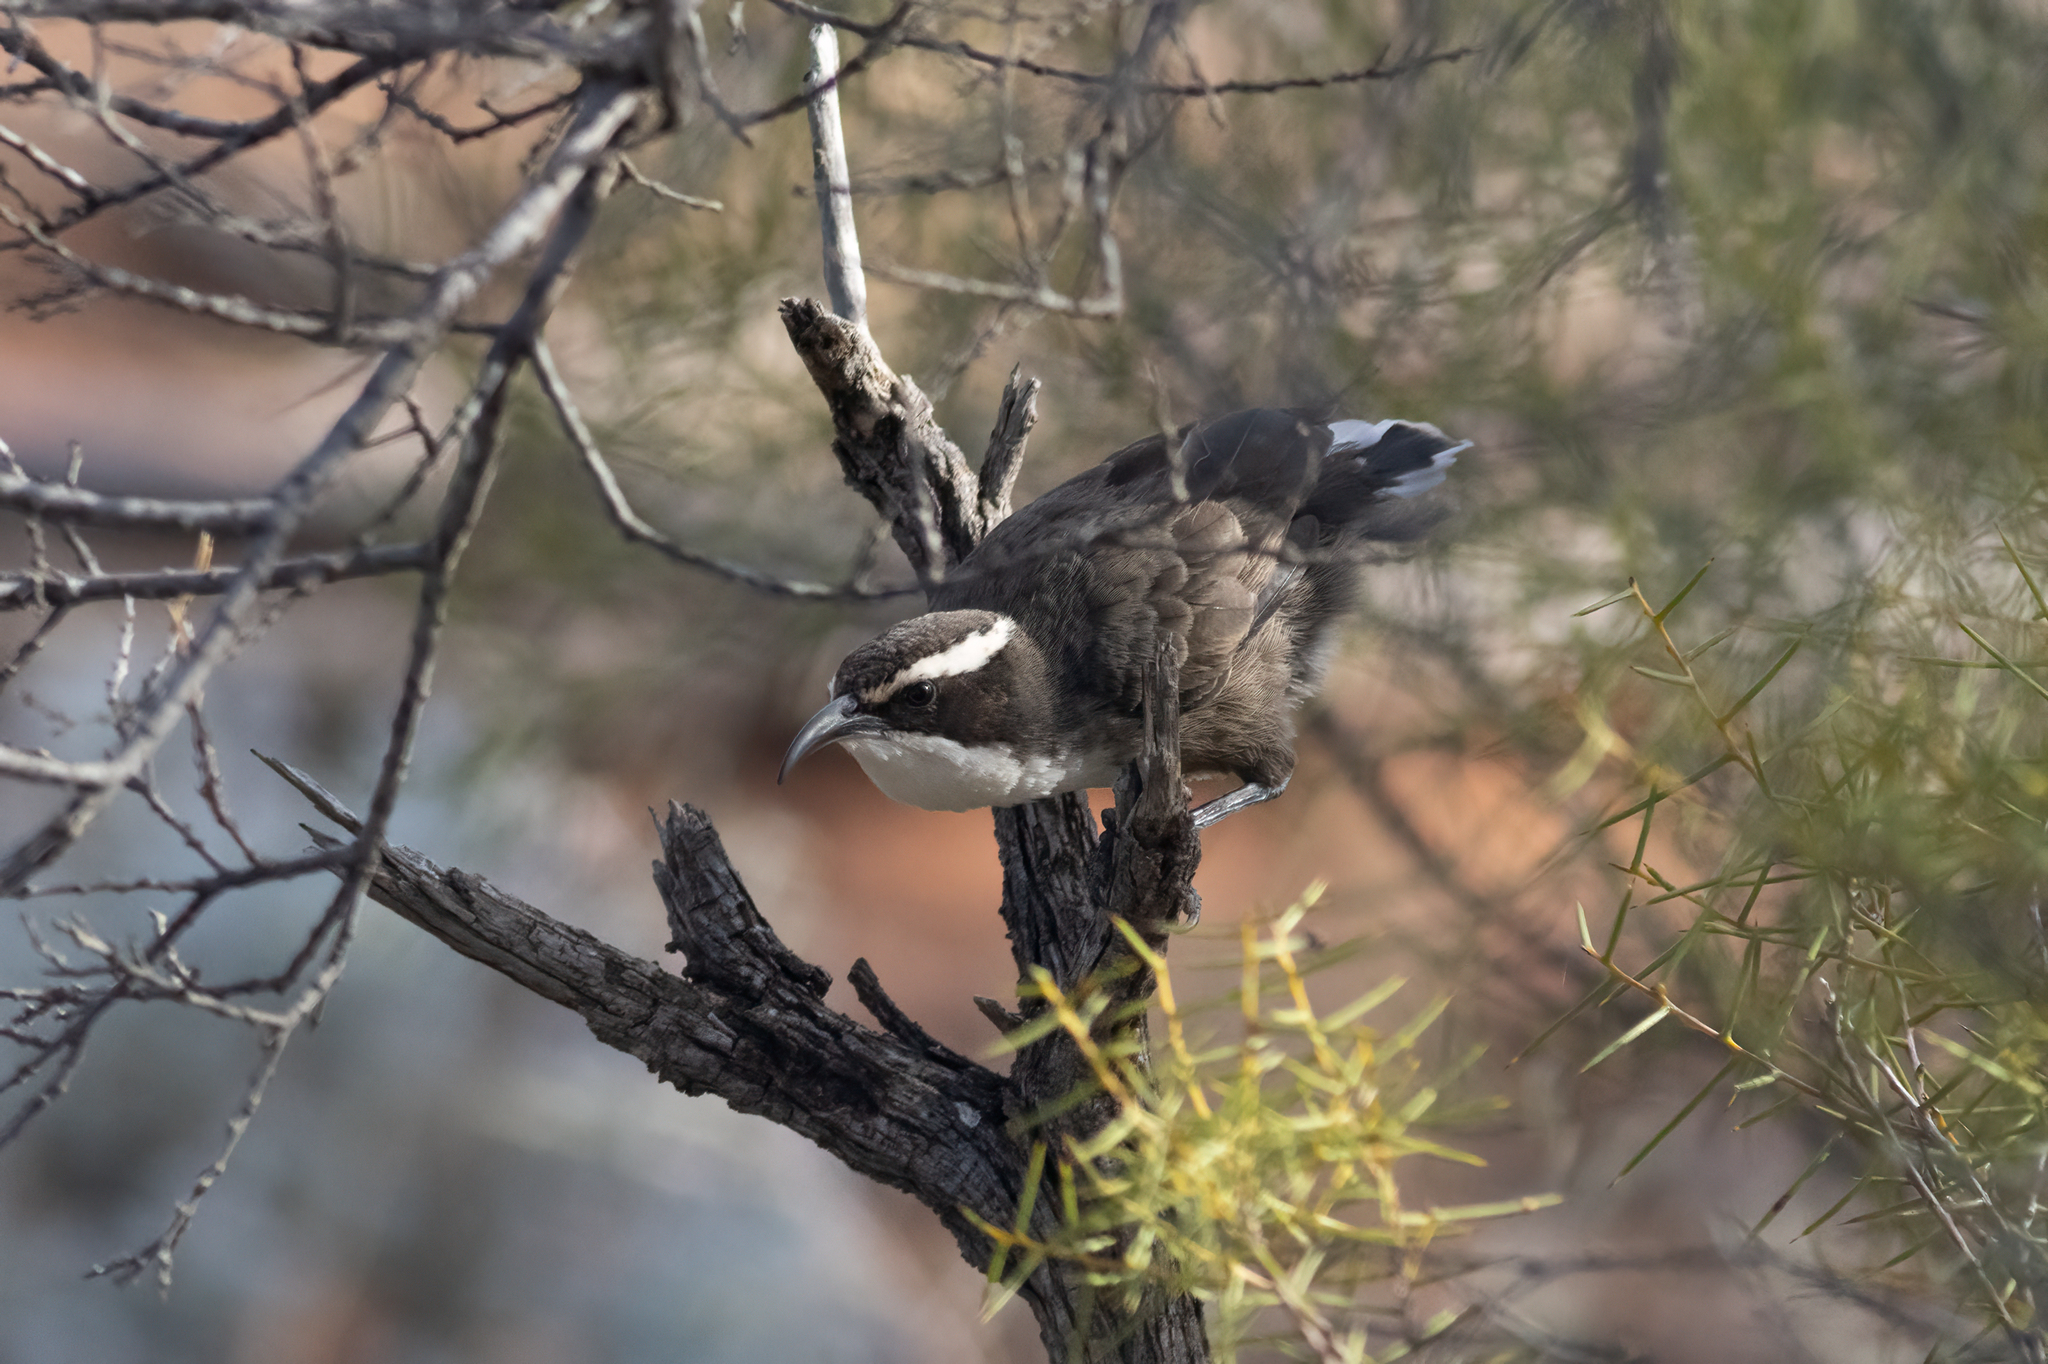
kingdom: Animalia
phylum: Chordata
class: Aves
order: Passeriformes
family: Pomatostomidae
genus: Pomatostomus
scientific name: Pomatostomus superciliosus
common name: White-browed babbler
